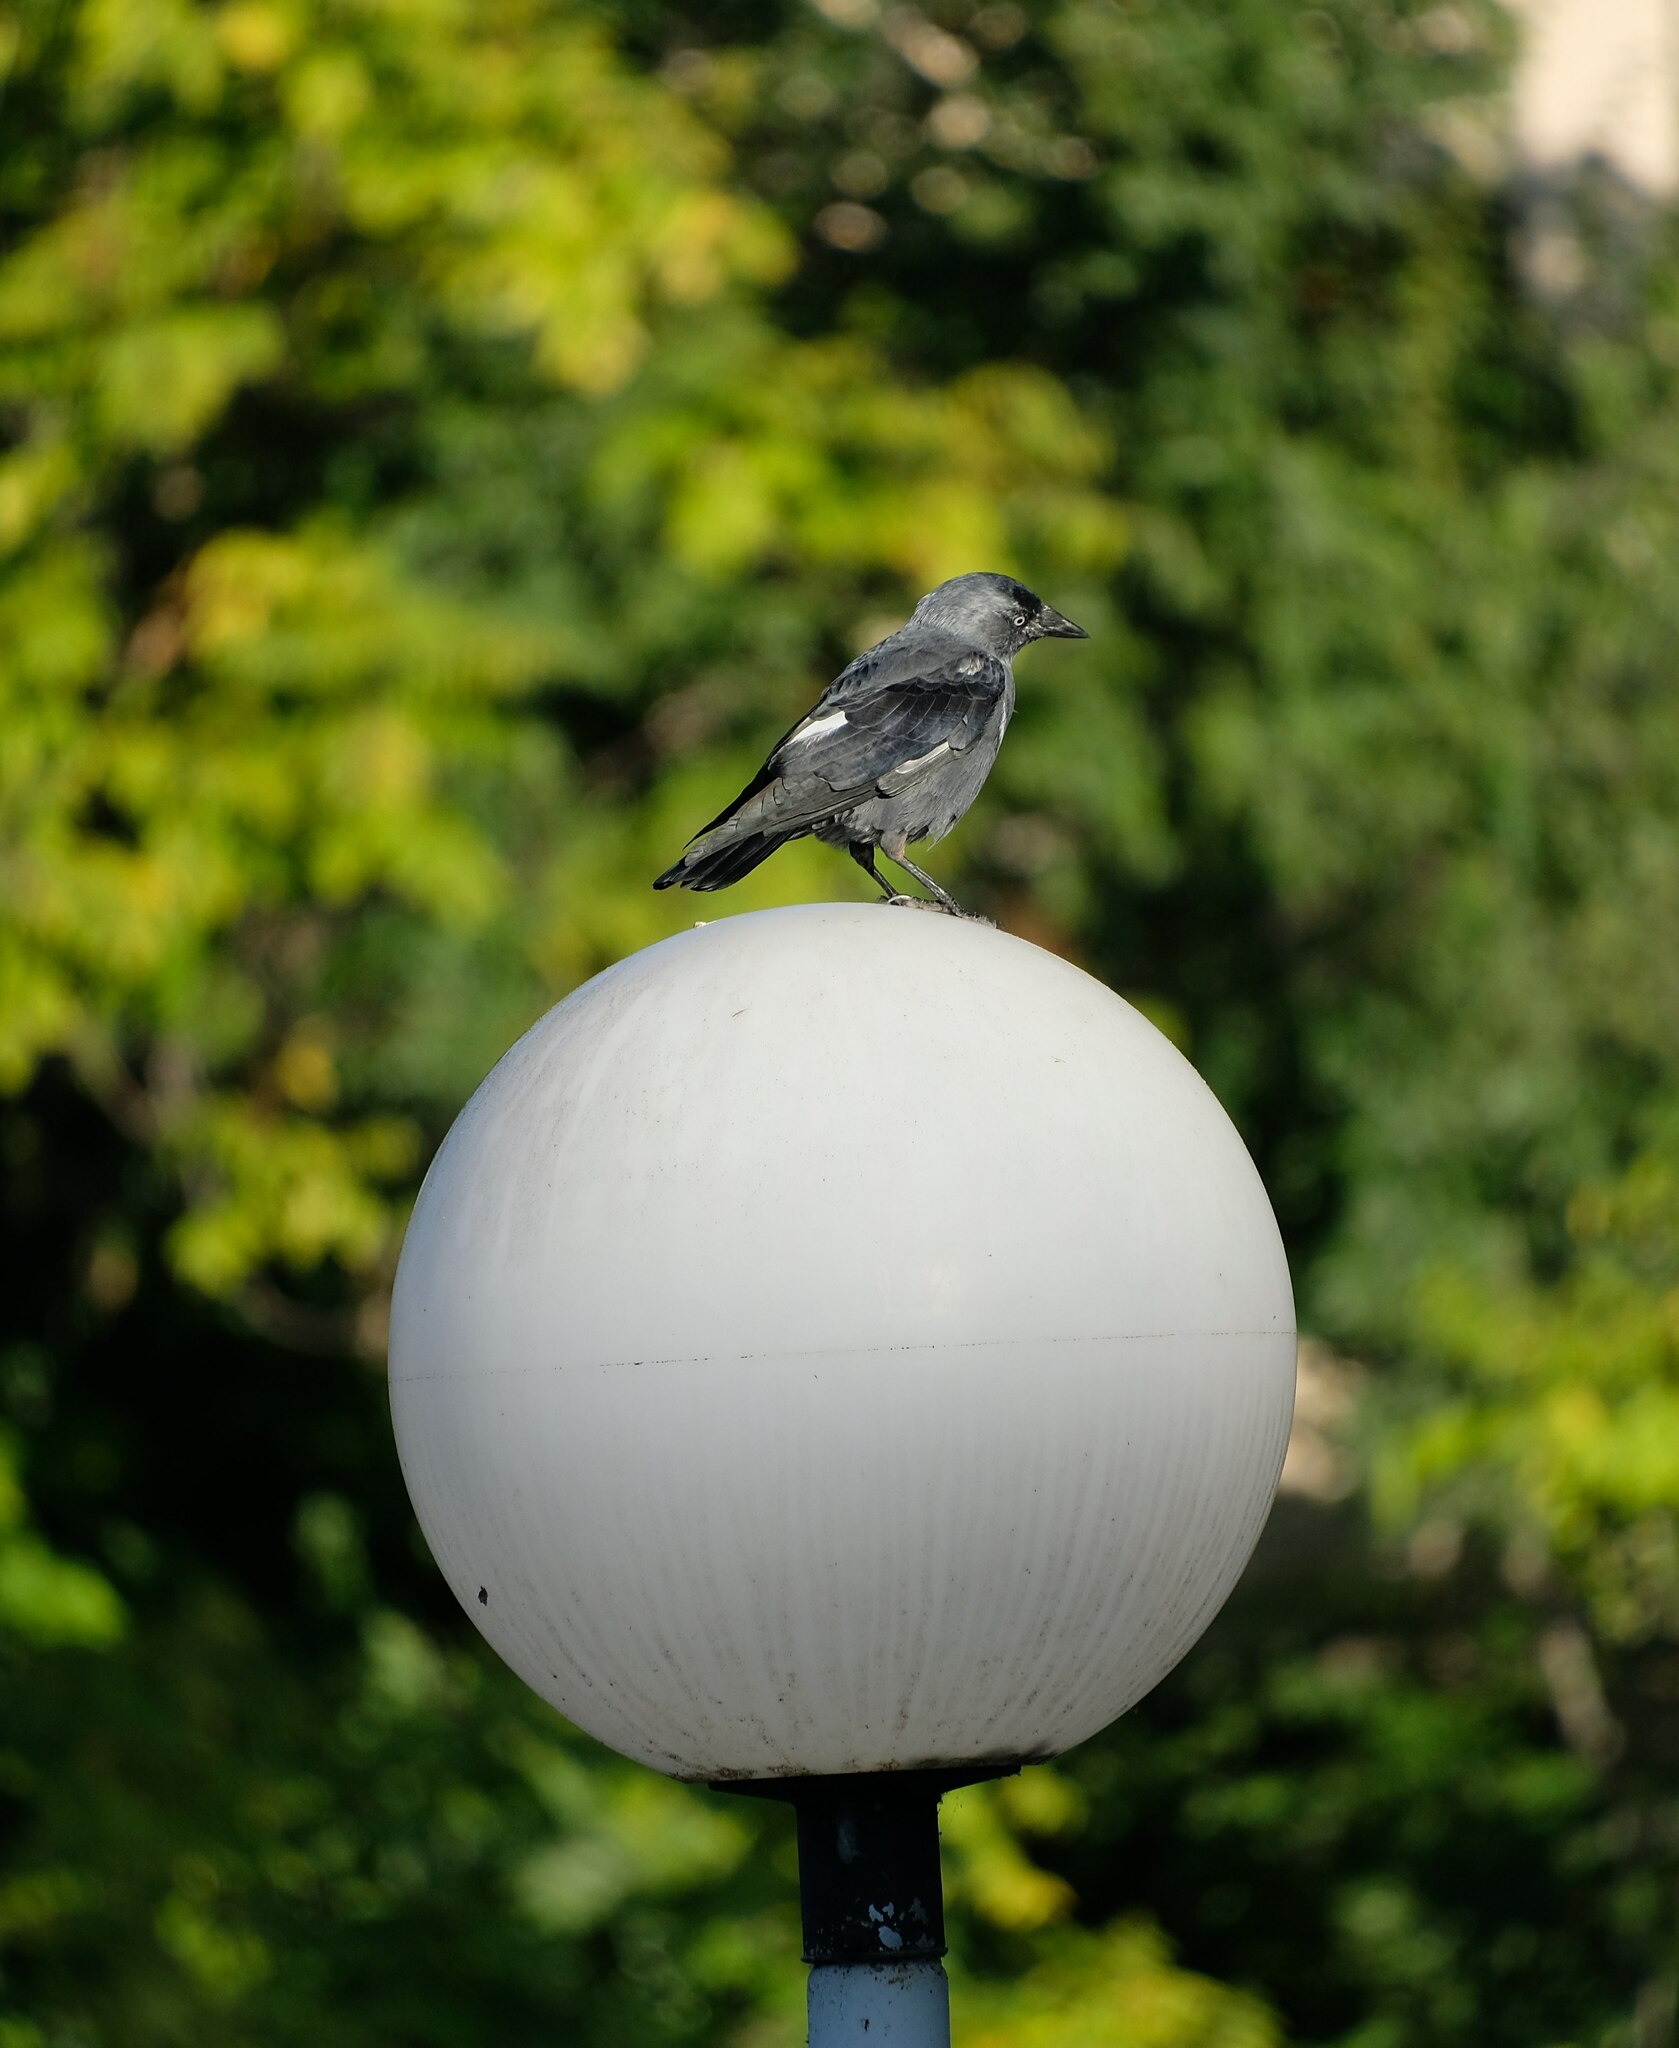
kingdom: Animalia
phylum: Chordata
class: Aves
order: Passeriformes
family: Corvidae
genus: Coloeus
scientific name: Coloeus monedula
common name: Western jackdaw
